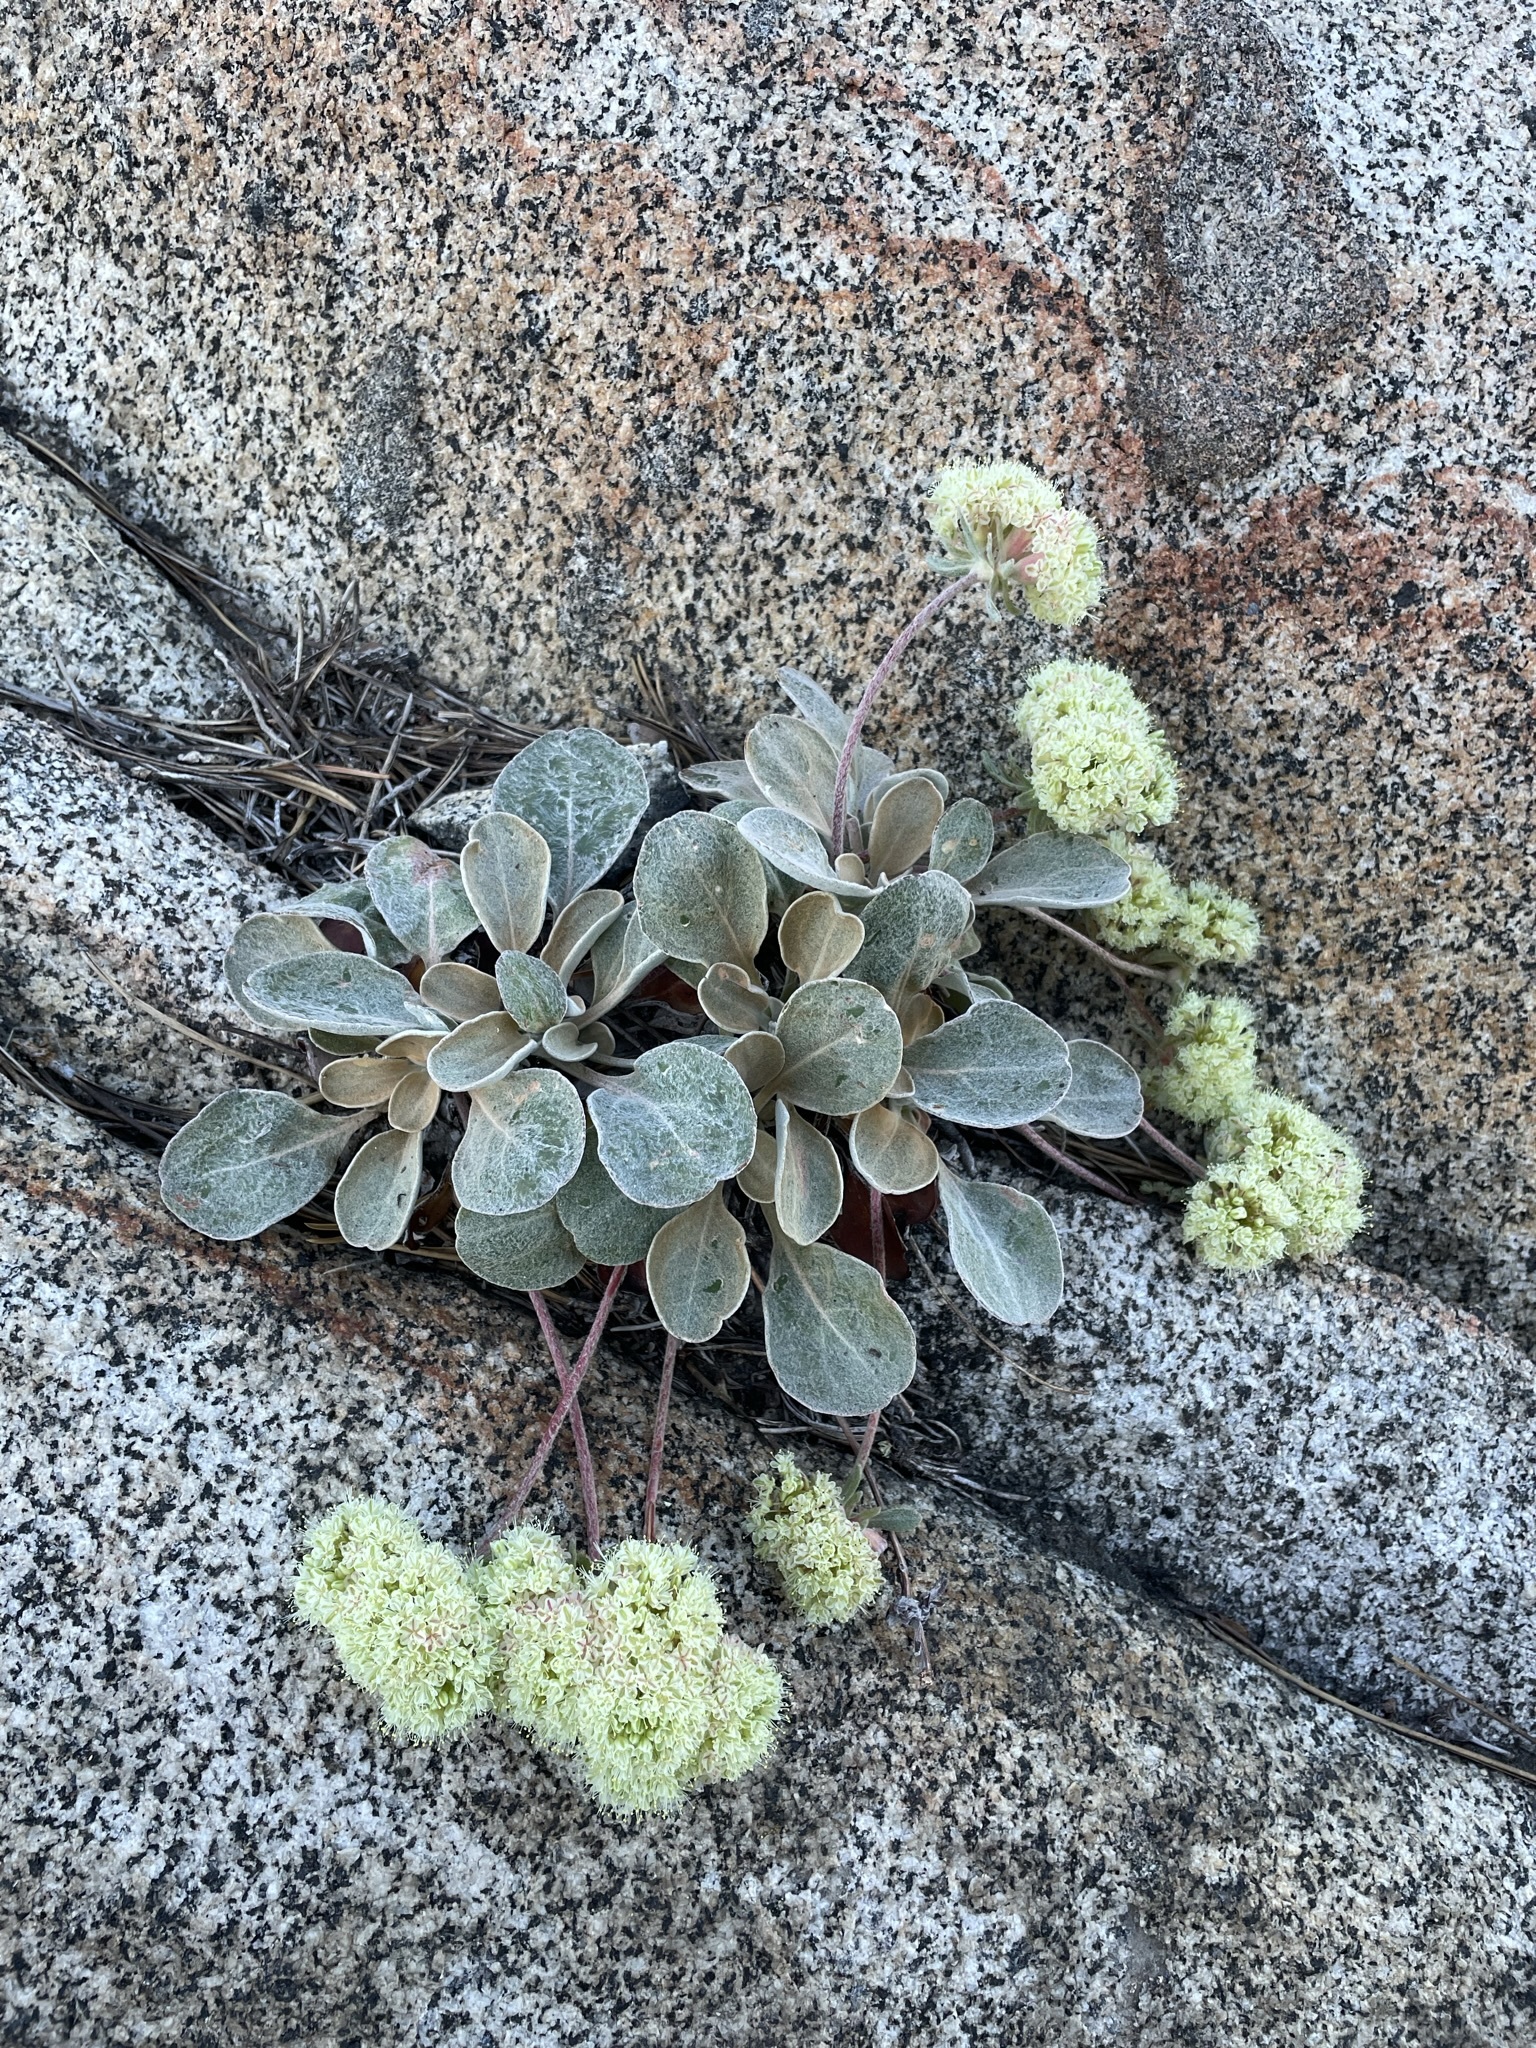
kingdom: Plantae
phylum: Tracheophyta
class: Magnoliopsida
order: Caryophyllales
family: Polygonaceae
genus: Eriogonum
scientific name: Eriogonum lobbii
